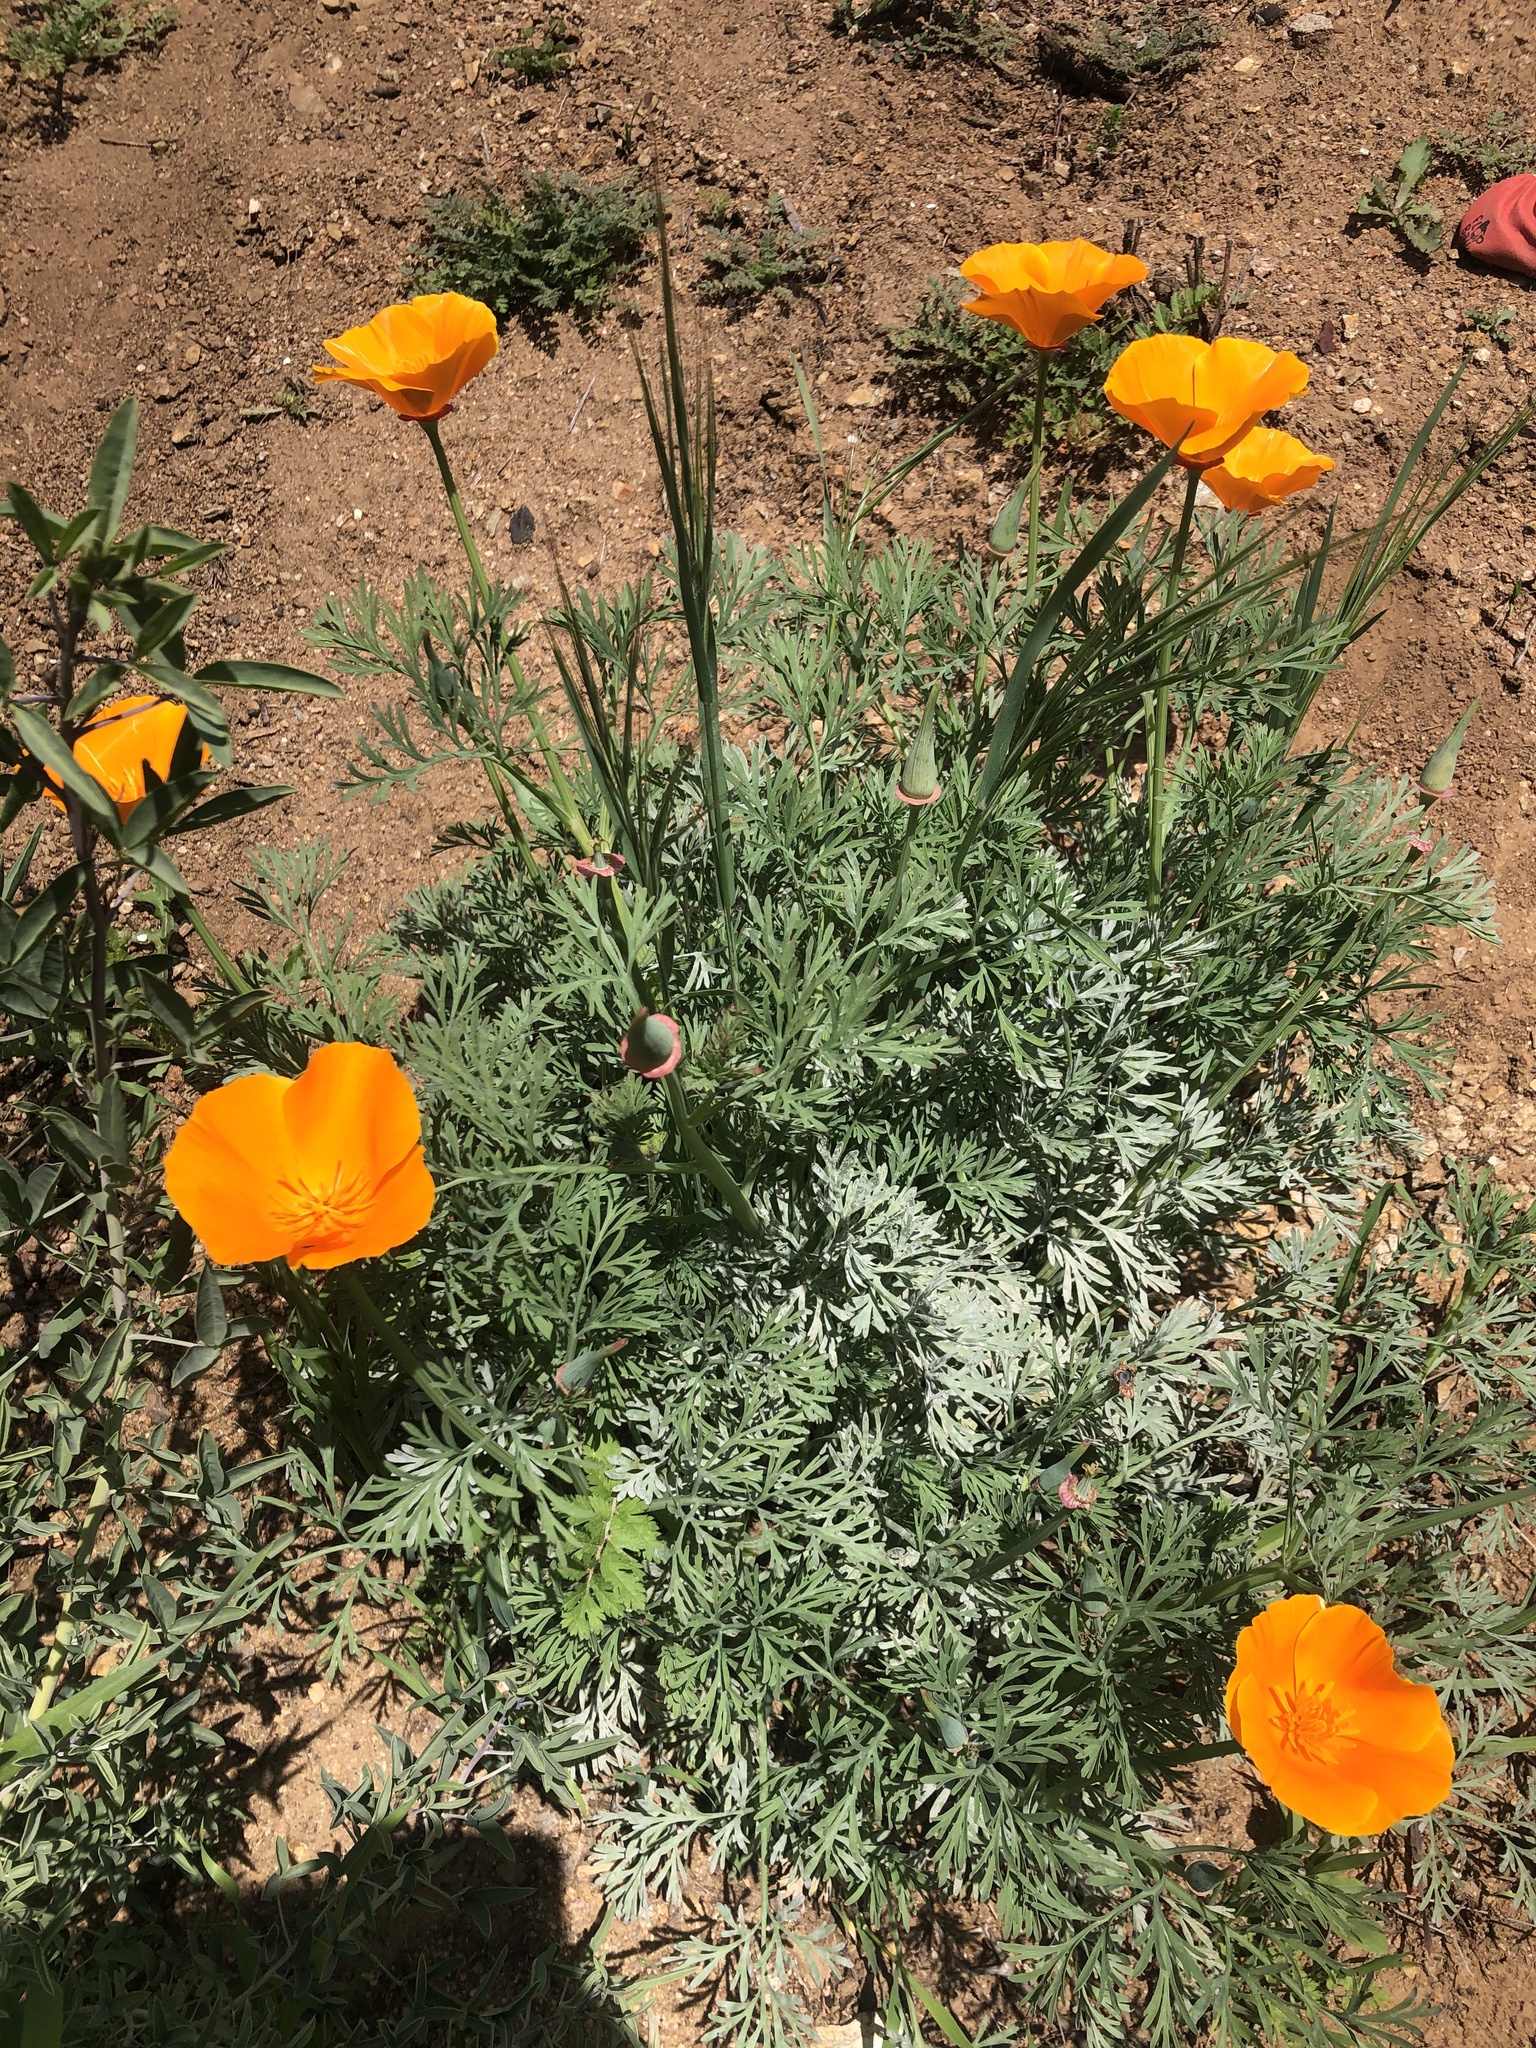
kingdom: Plantae
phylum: Tracheophyta
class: Magnoliopsida
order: Ranunculales
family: Papaveraceae
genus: Eschscholzia
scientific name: Eschscholzia californica
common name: California poppy
